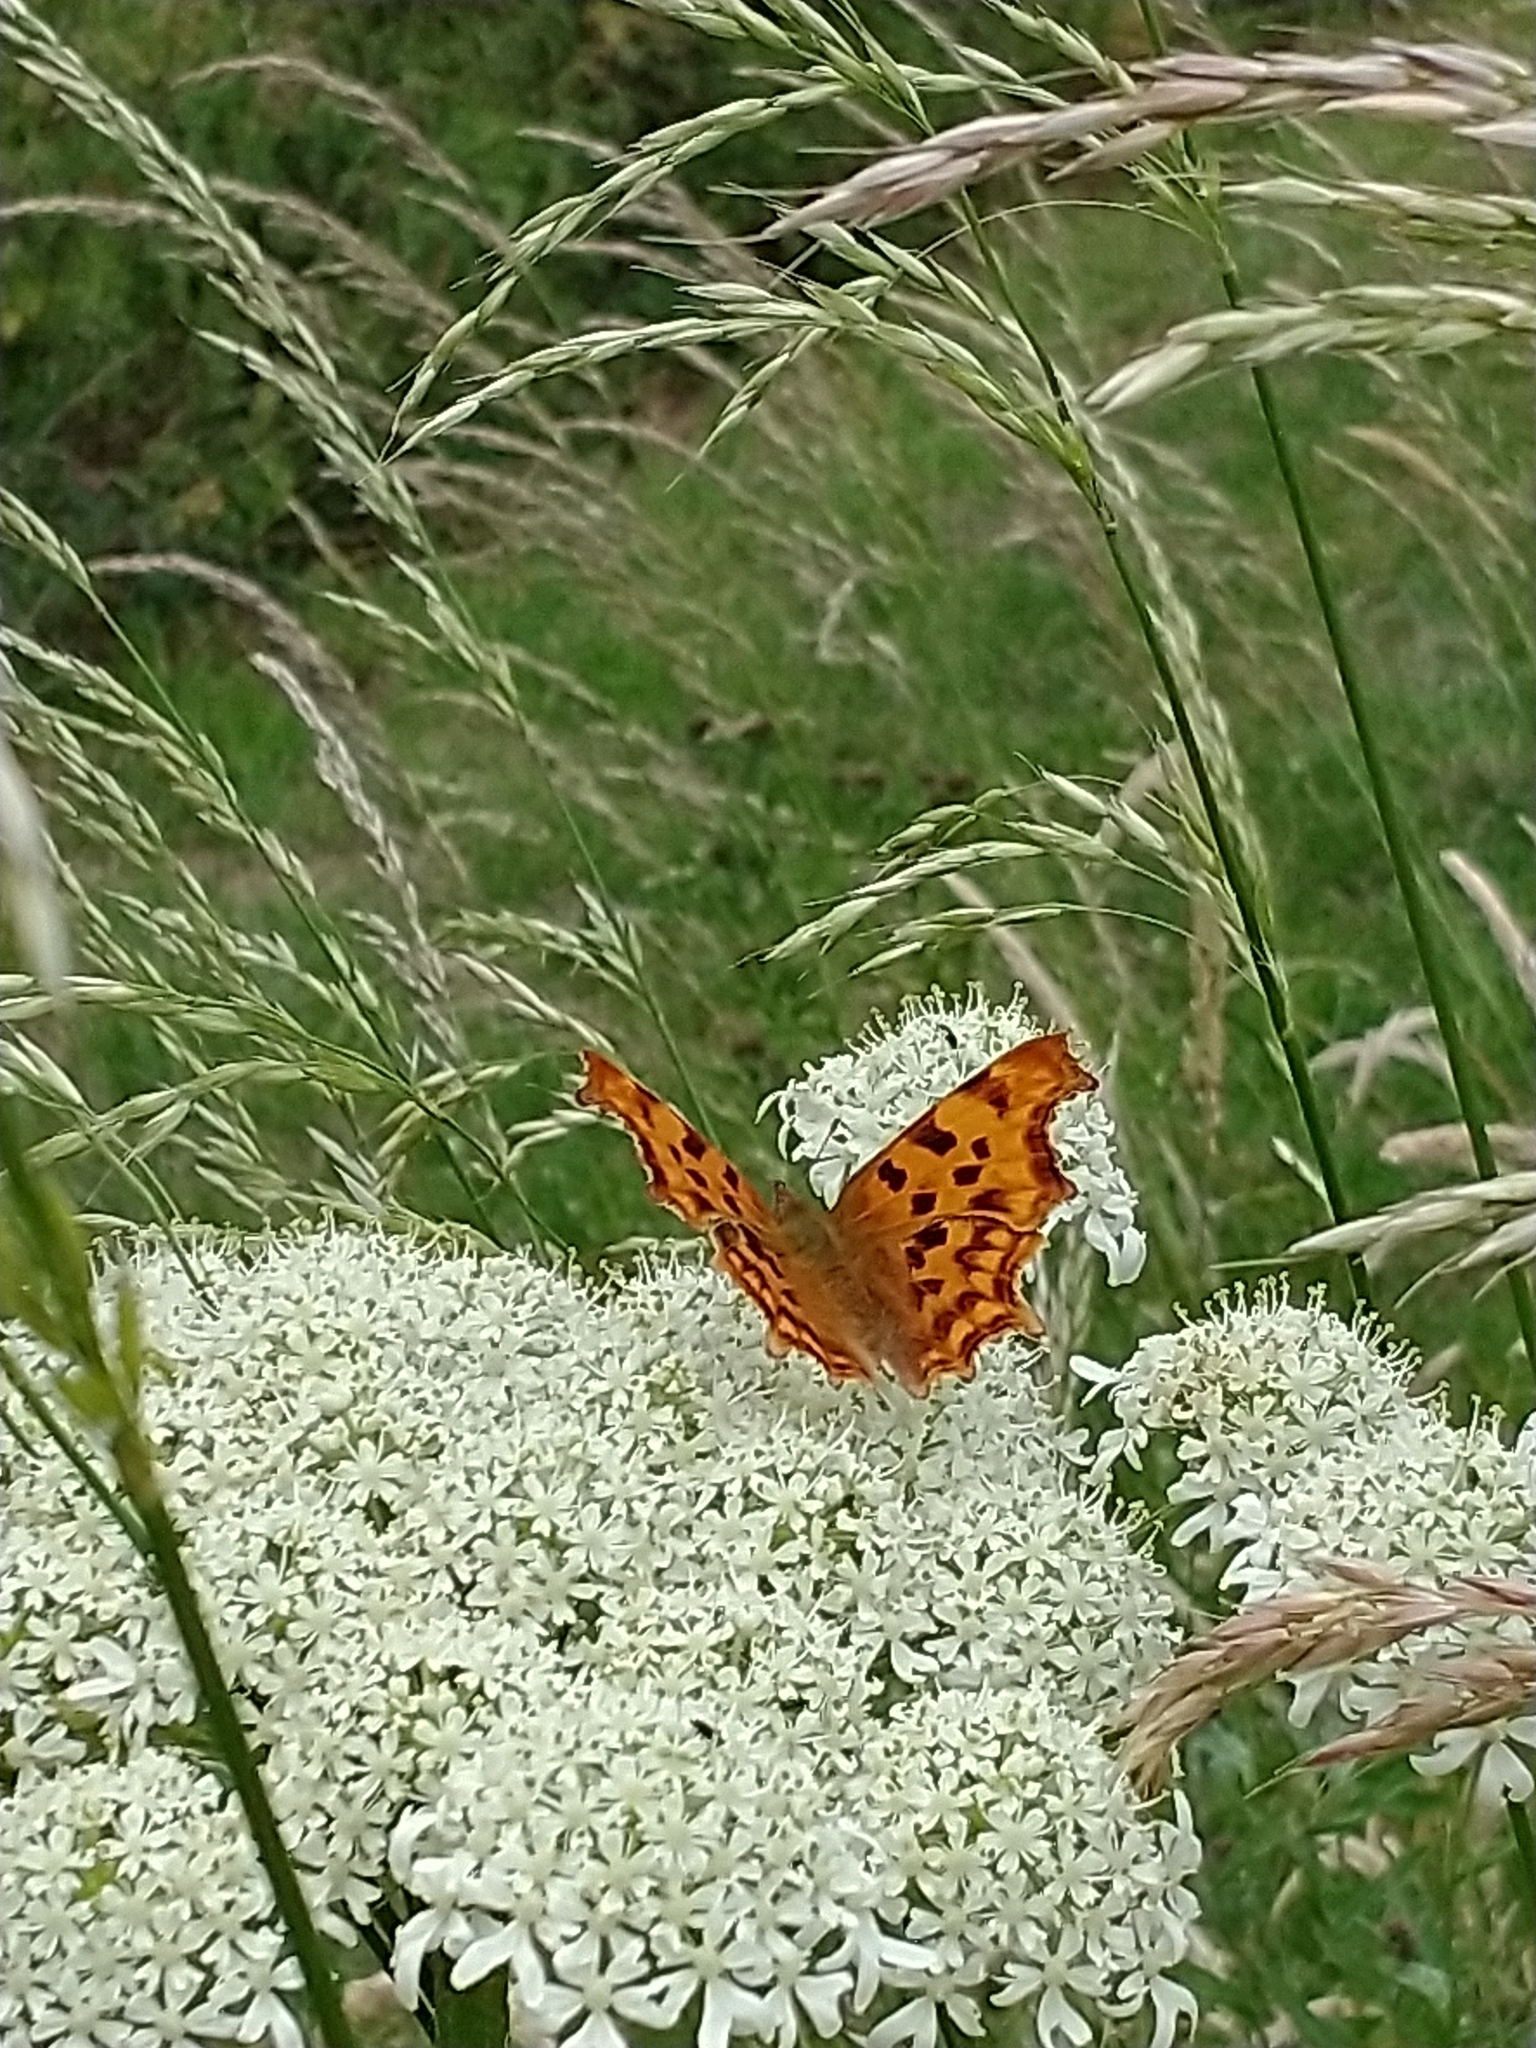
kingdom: Animalia
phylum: Arthropoda
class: Insecta
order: Lepidoptera
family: Nymphalidae
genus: Polygonia
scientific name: Polygonia c-album
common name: Comma
